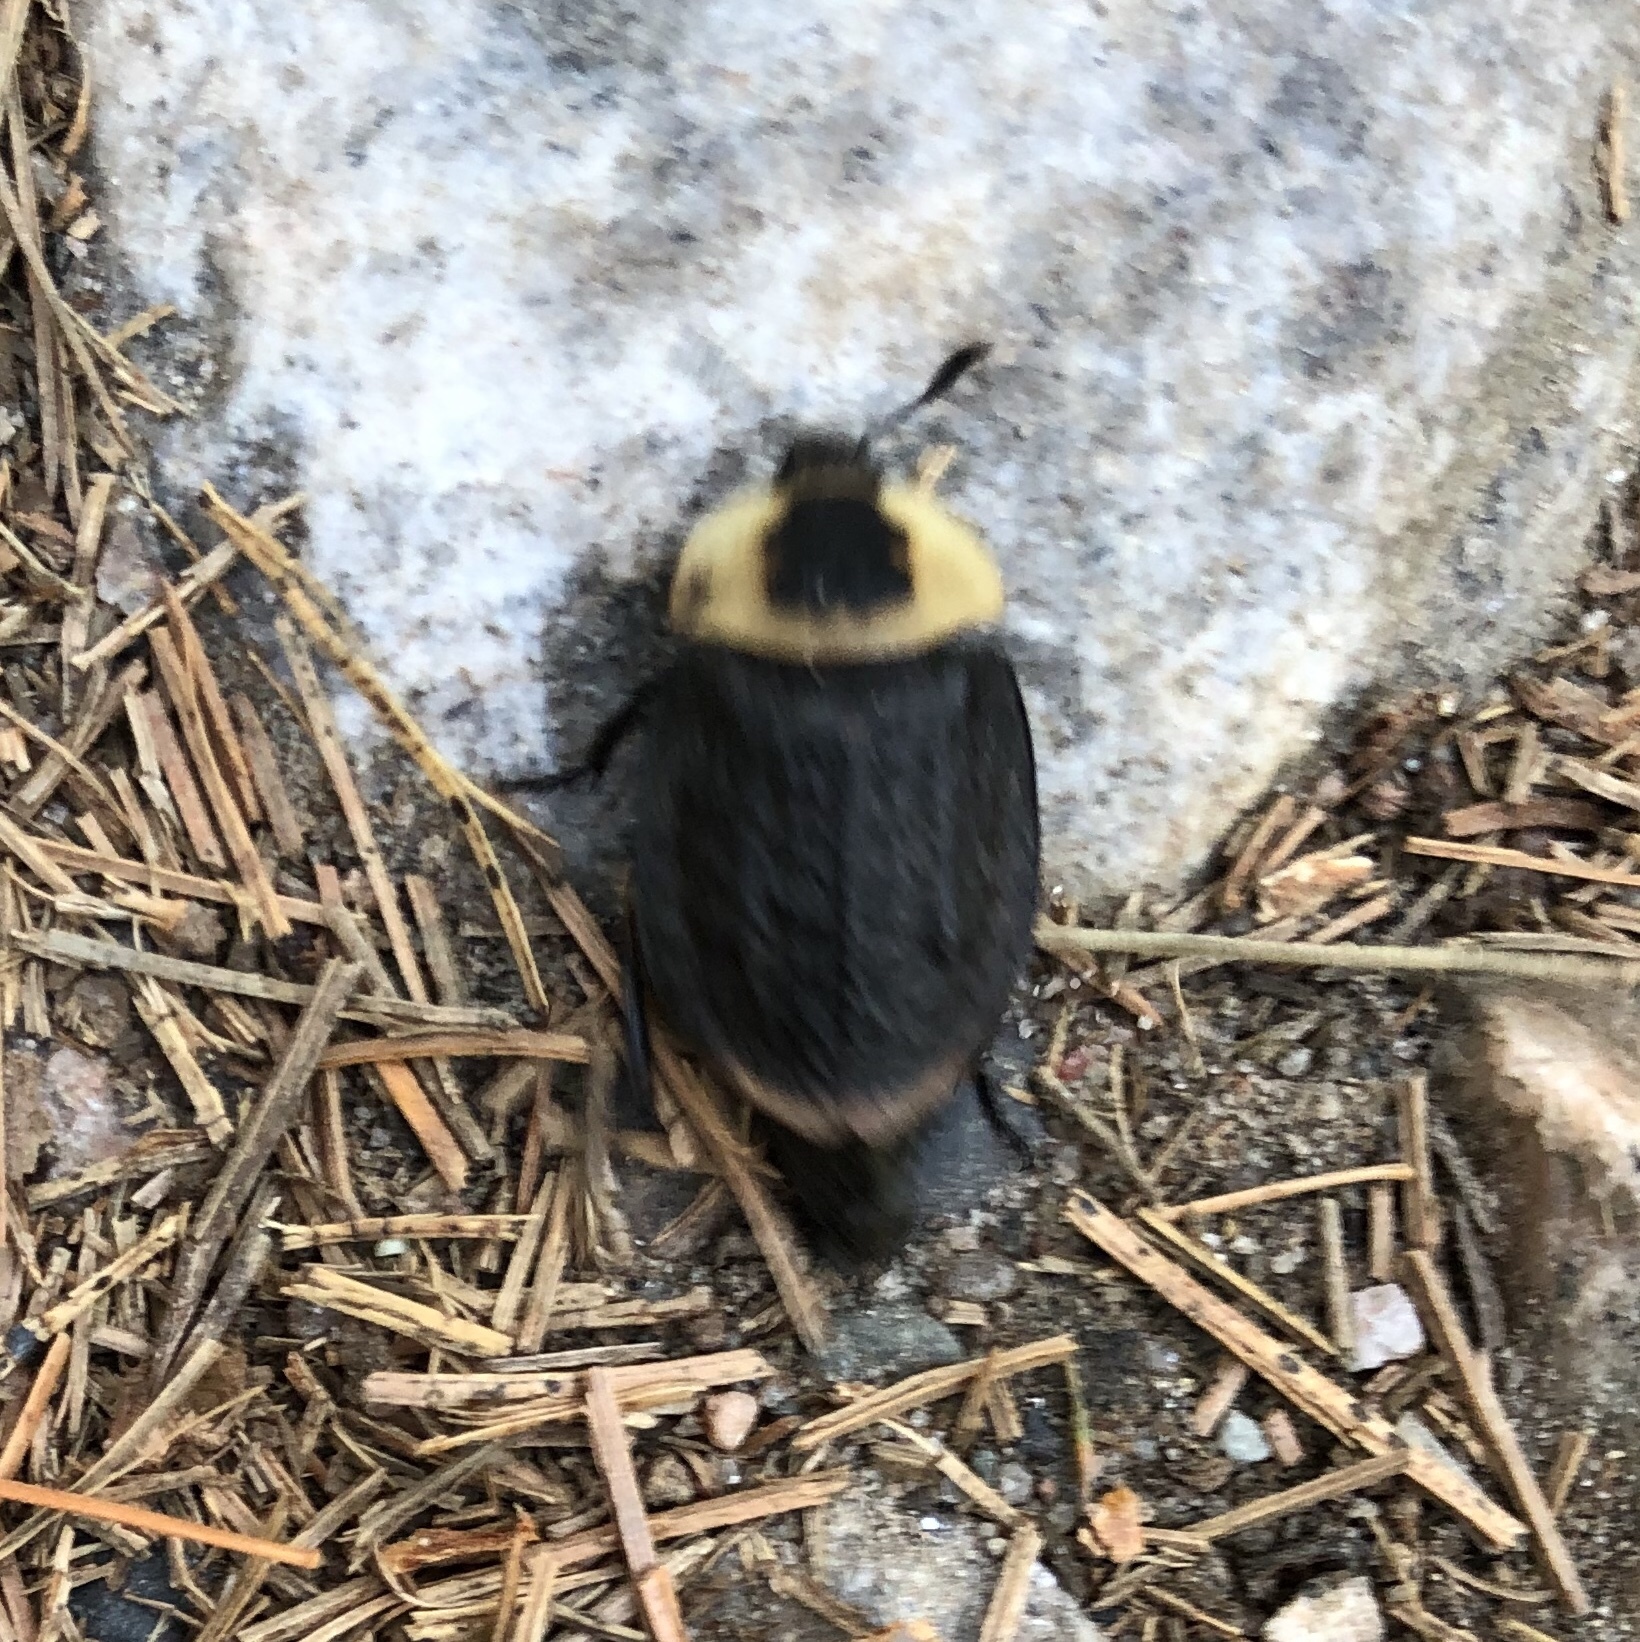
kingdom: Animalia
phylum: Arthropoda
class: Insecta
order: Coleoptera
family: Staphylinidae
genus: Necrophila
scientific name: Necrophila americana
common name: American carrion beetle
